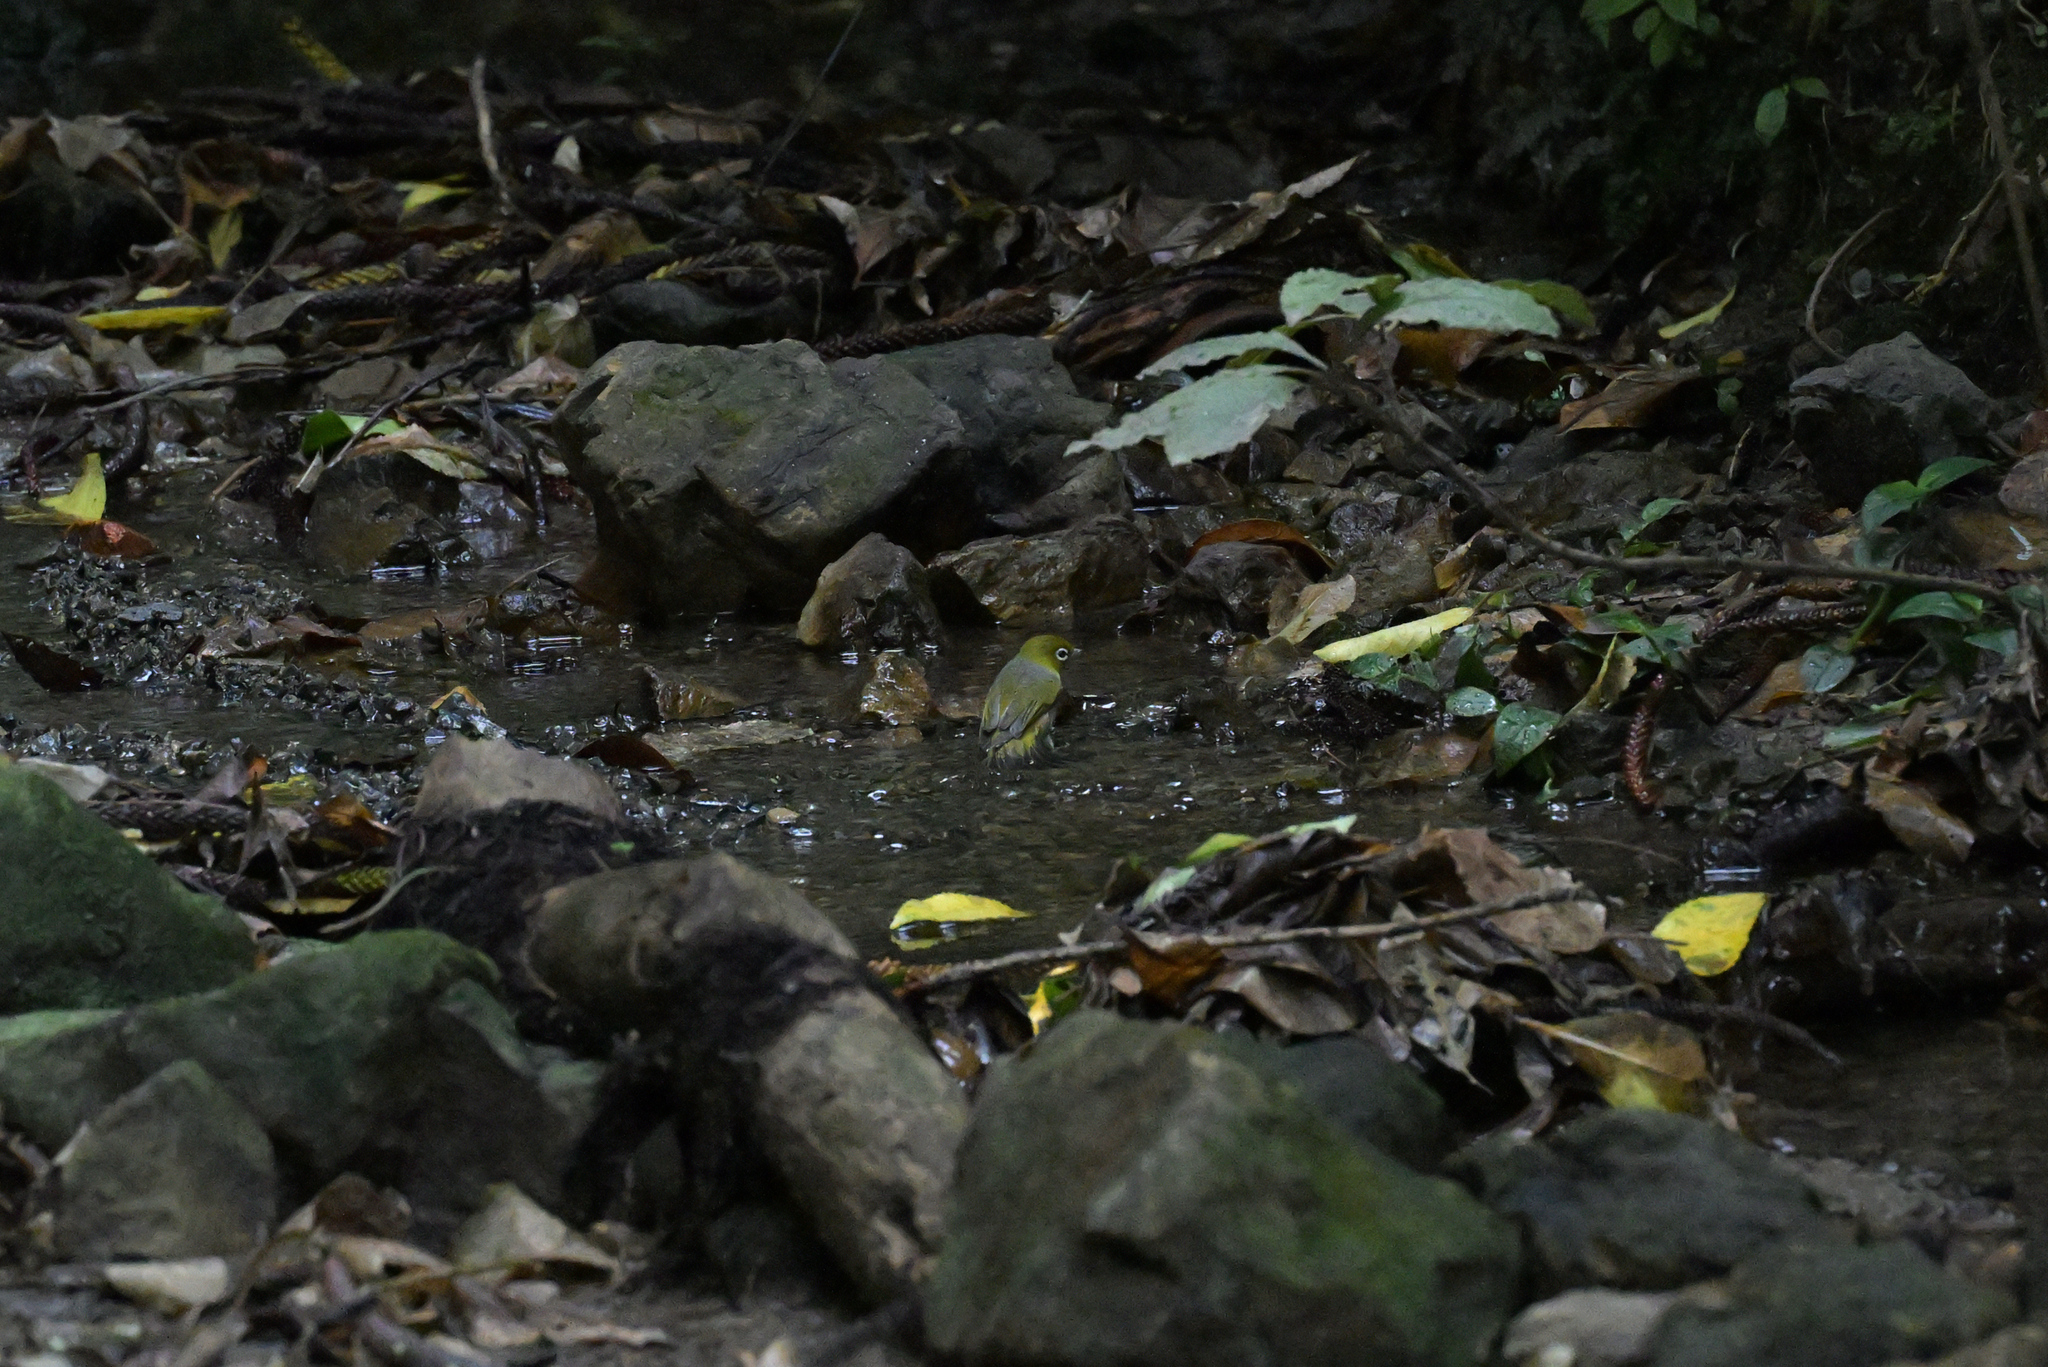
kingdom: Animalia
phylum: Chordata
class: Aves
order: Passeriformes
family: Zosteropidae
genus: Zosterops
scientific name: Zosterops lateralis
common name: Silvereye
